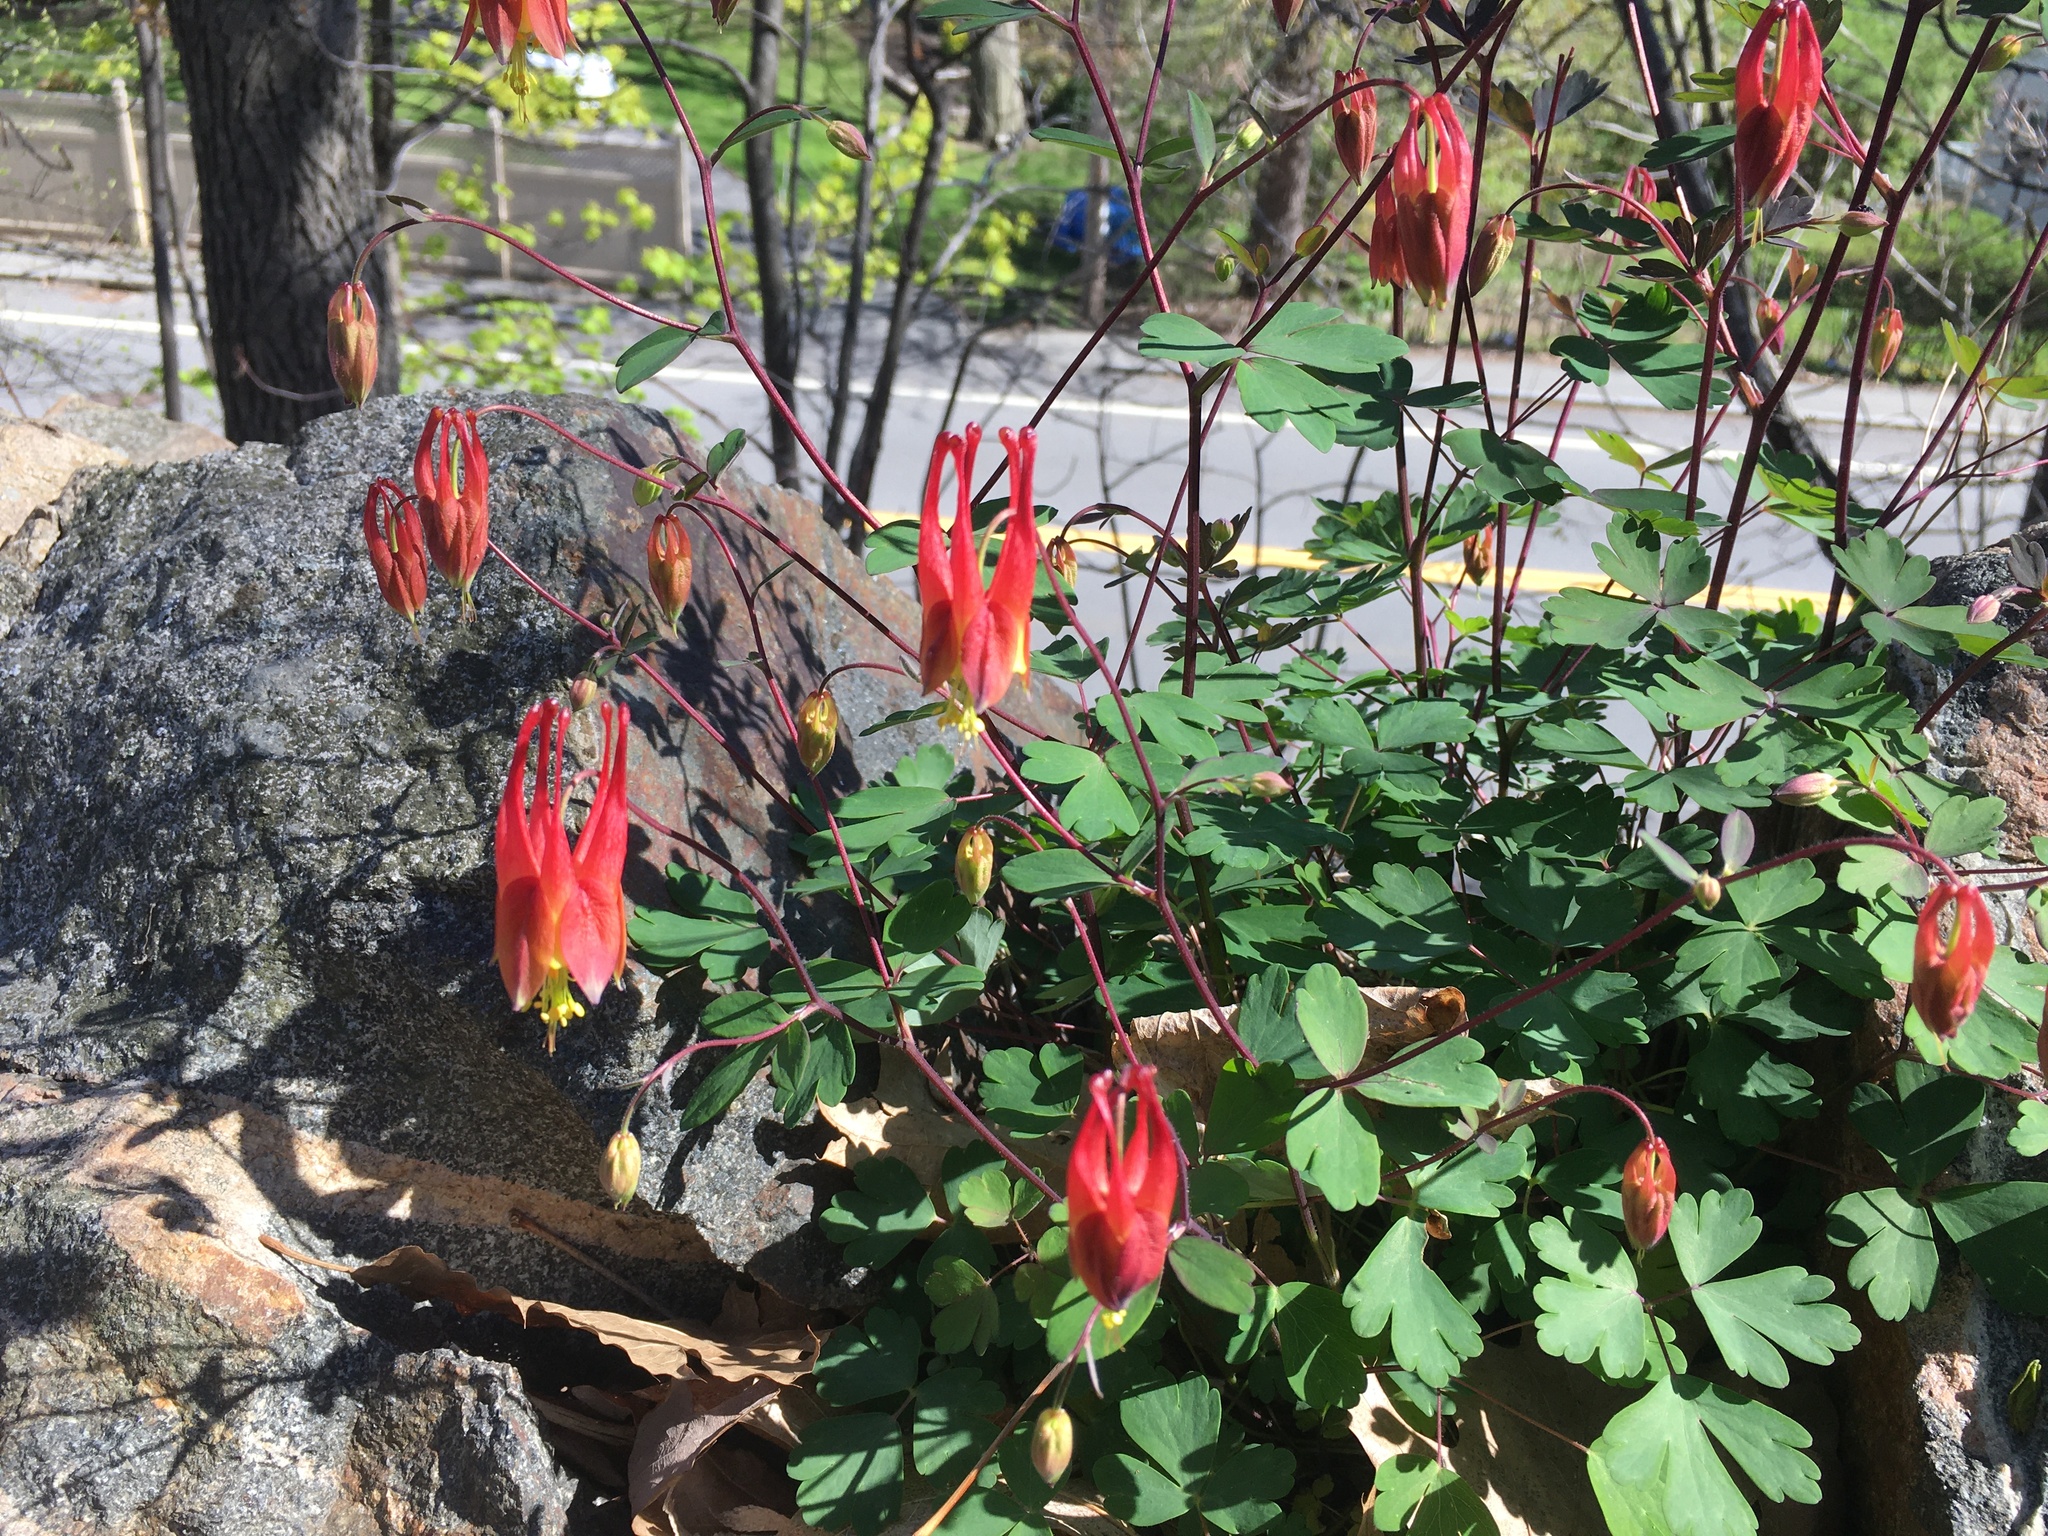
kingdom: Plantae
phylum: Tracheophyta
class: Magnoliopsida
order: Ranunculales
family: Ranunculaceae
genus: Aquilegia
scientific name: Aquilegia canadensis
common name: American columbine
